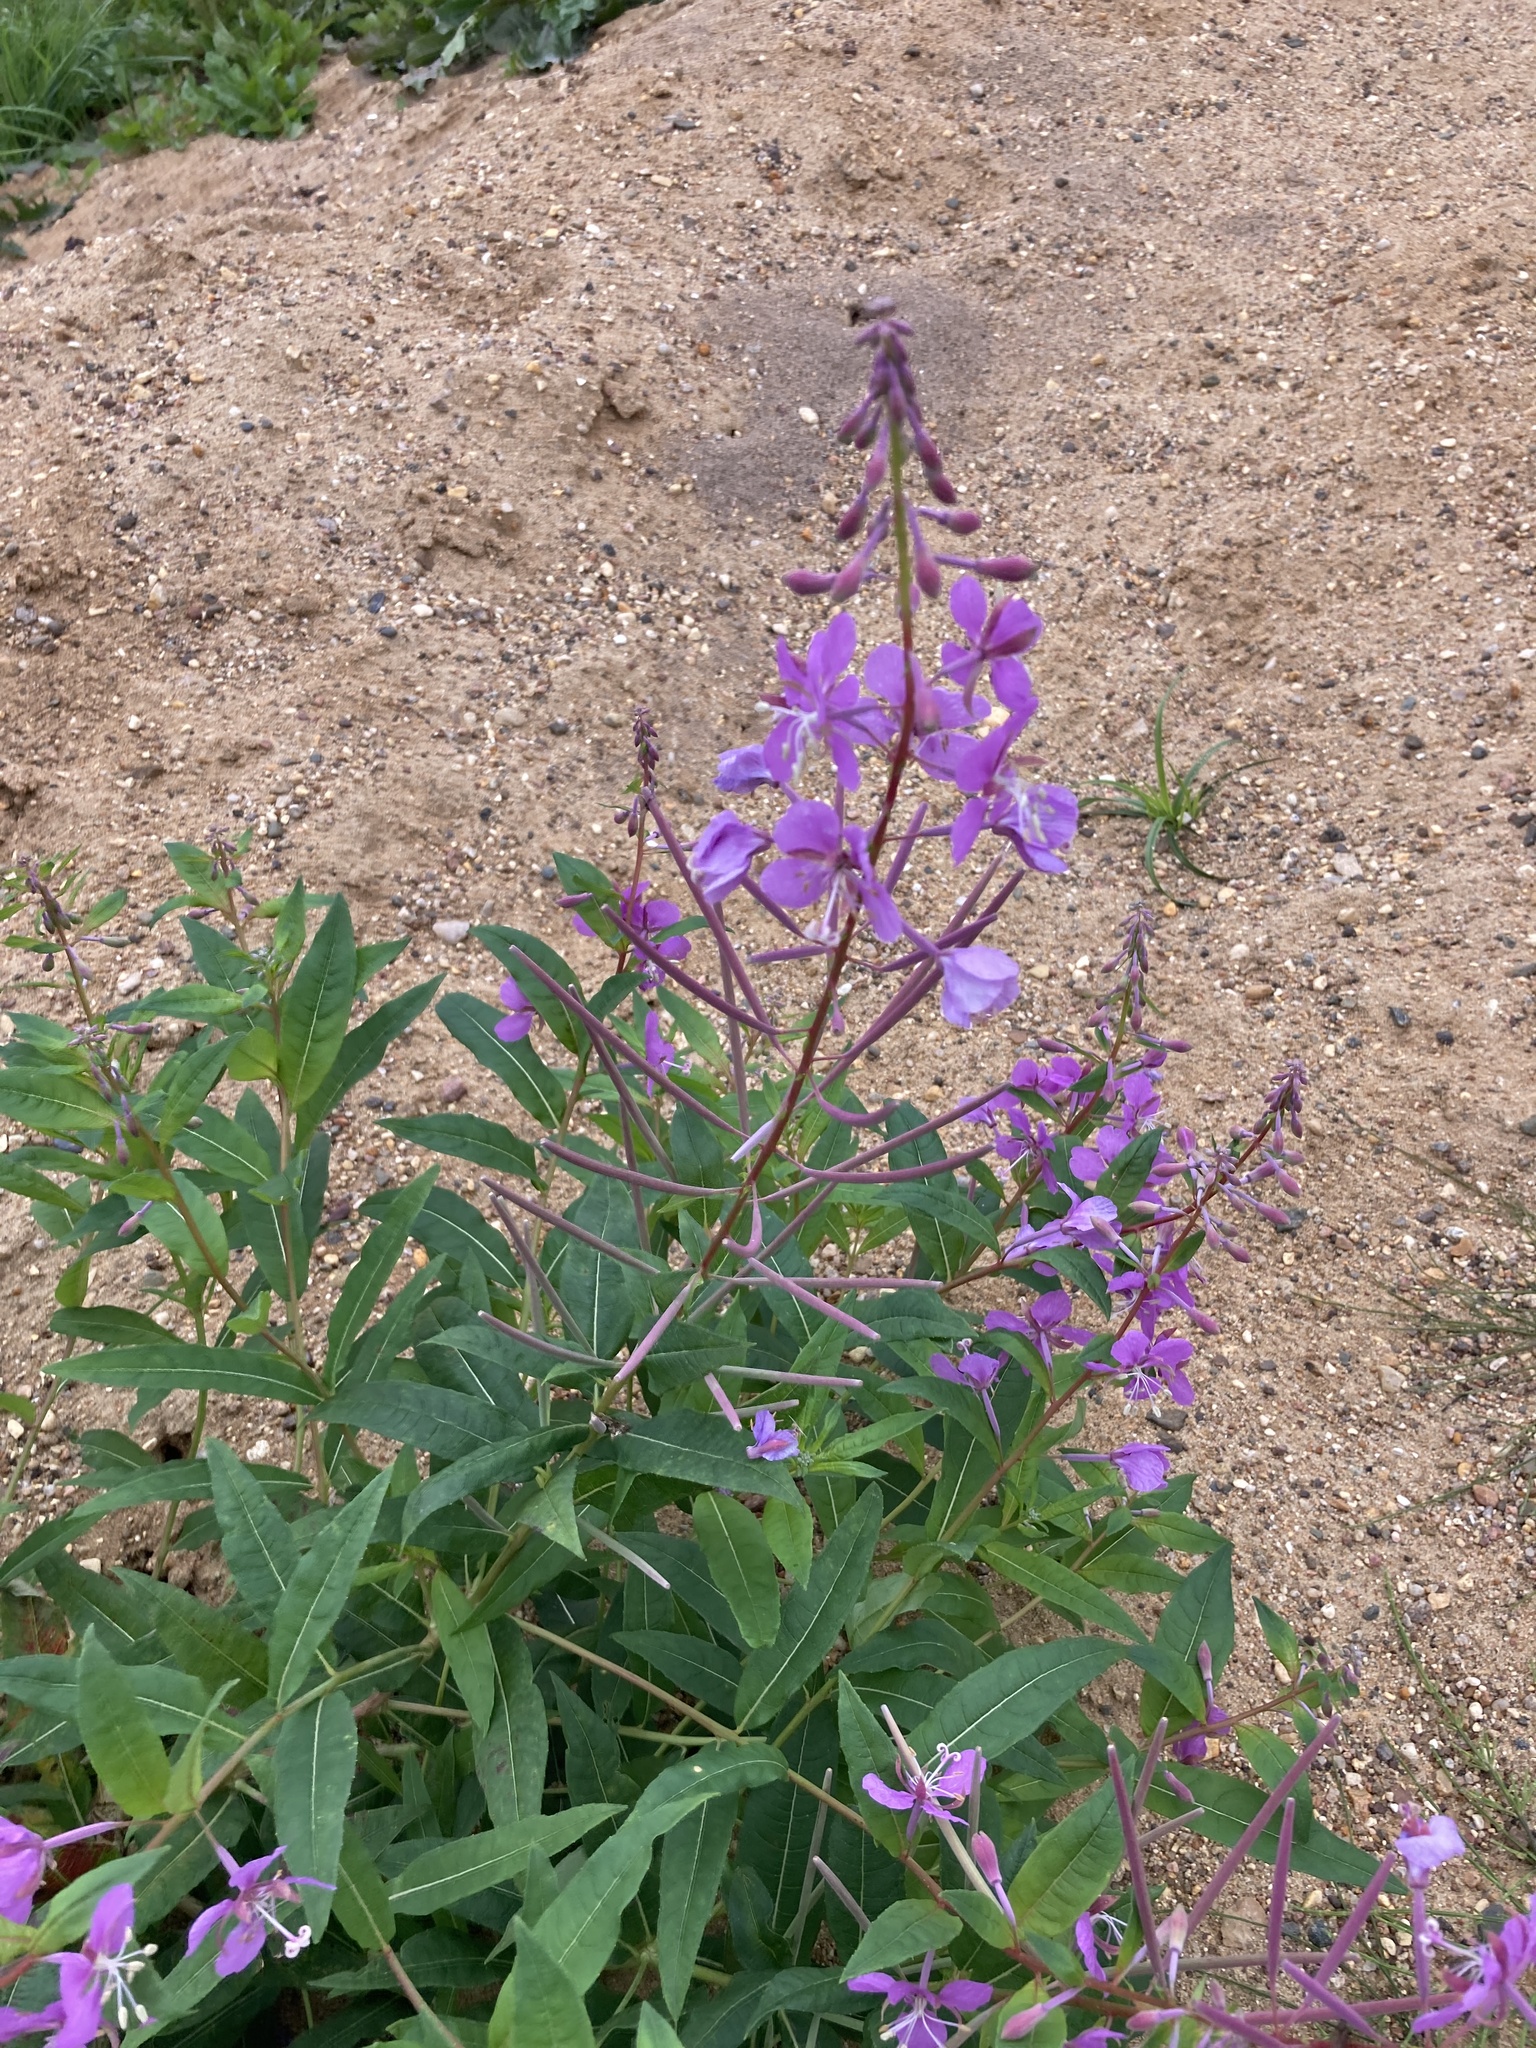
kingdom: Plantae
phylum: Tracheophyta
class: Magnoliopsida
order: Myrtales
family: Onagraceae
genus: Chamaenerion
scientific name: Chamaenerion angustifolium
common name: Fireweed
